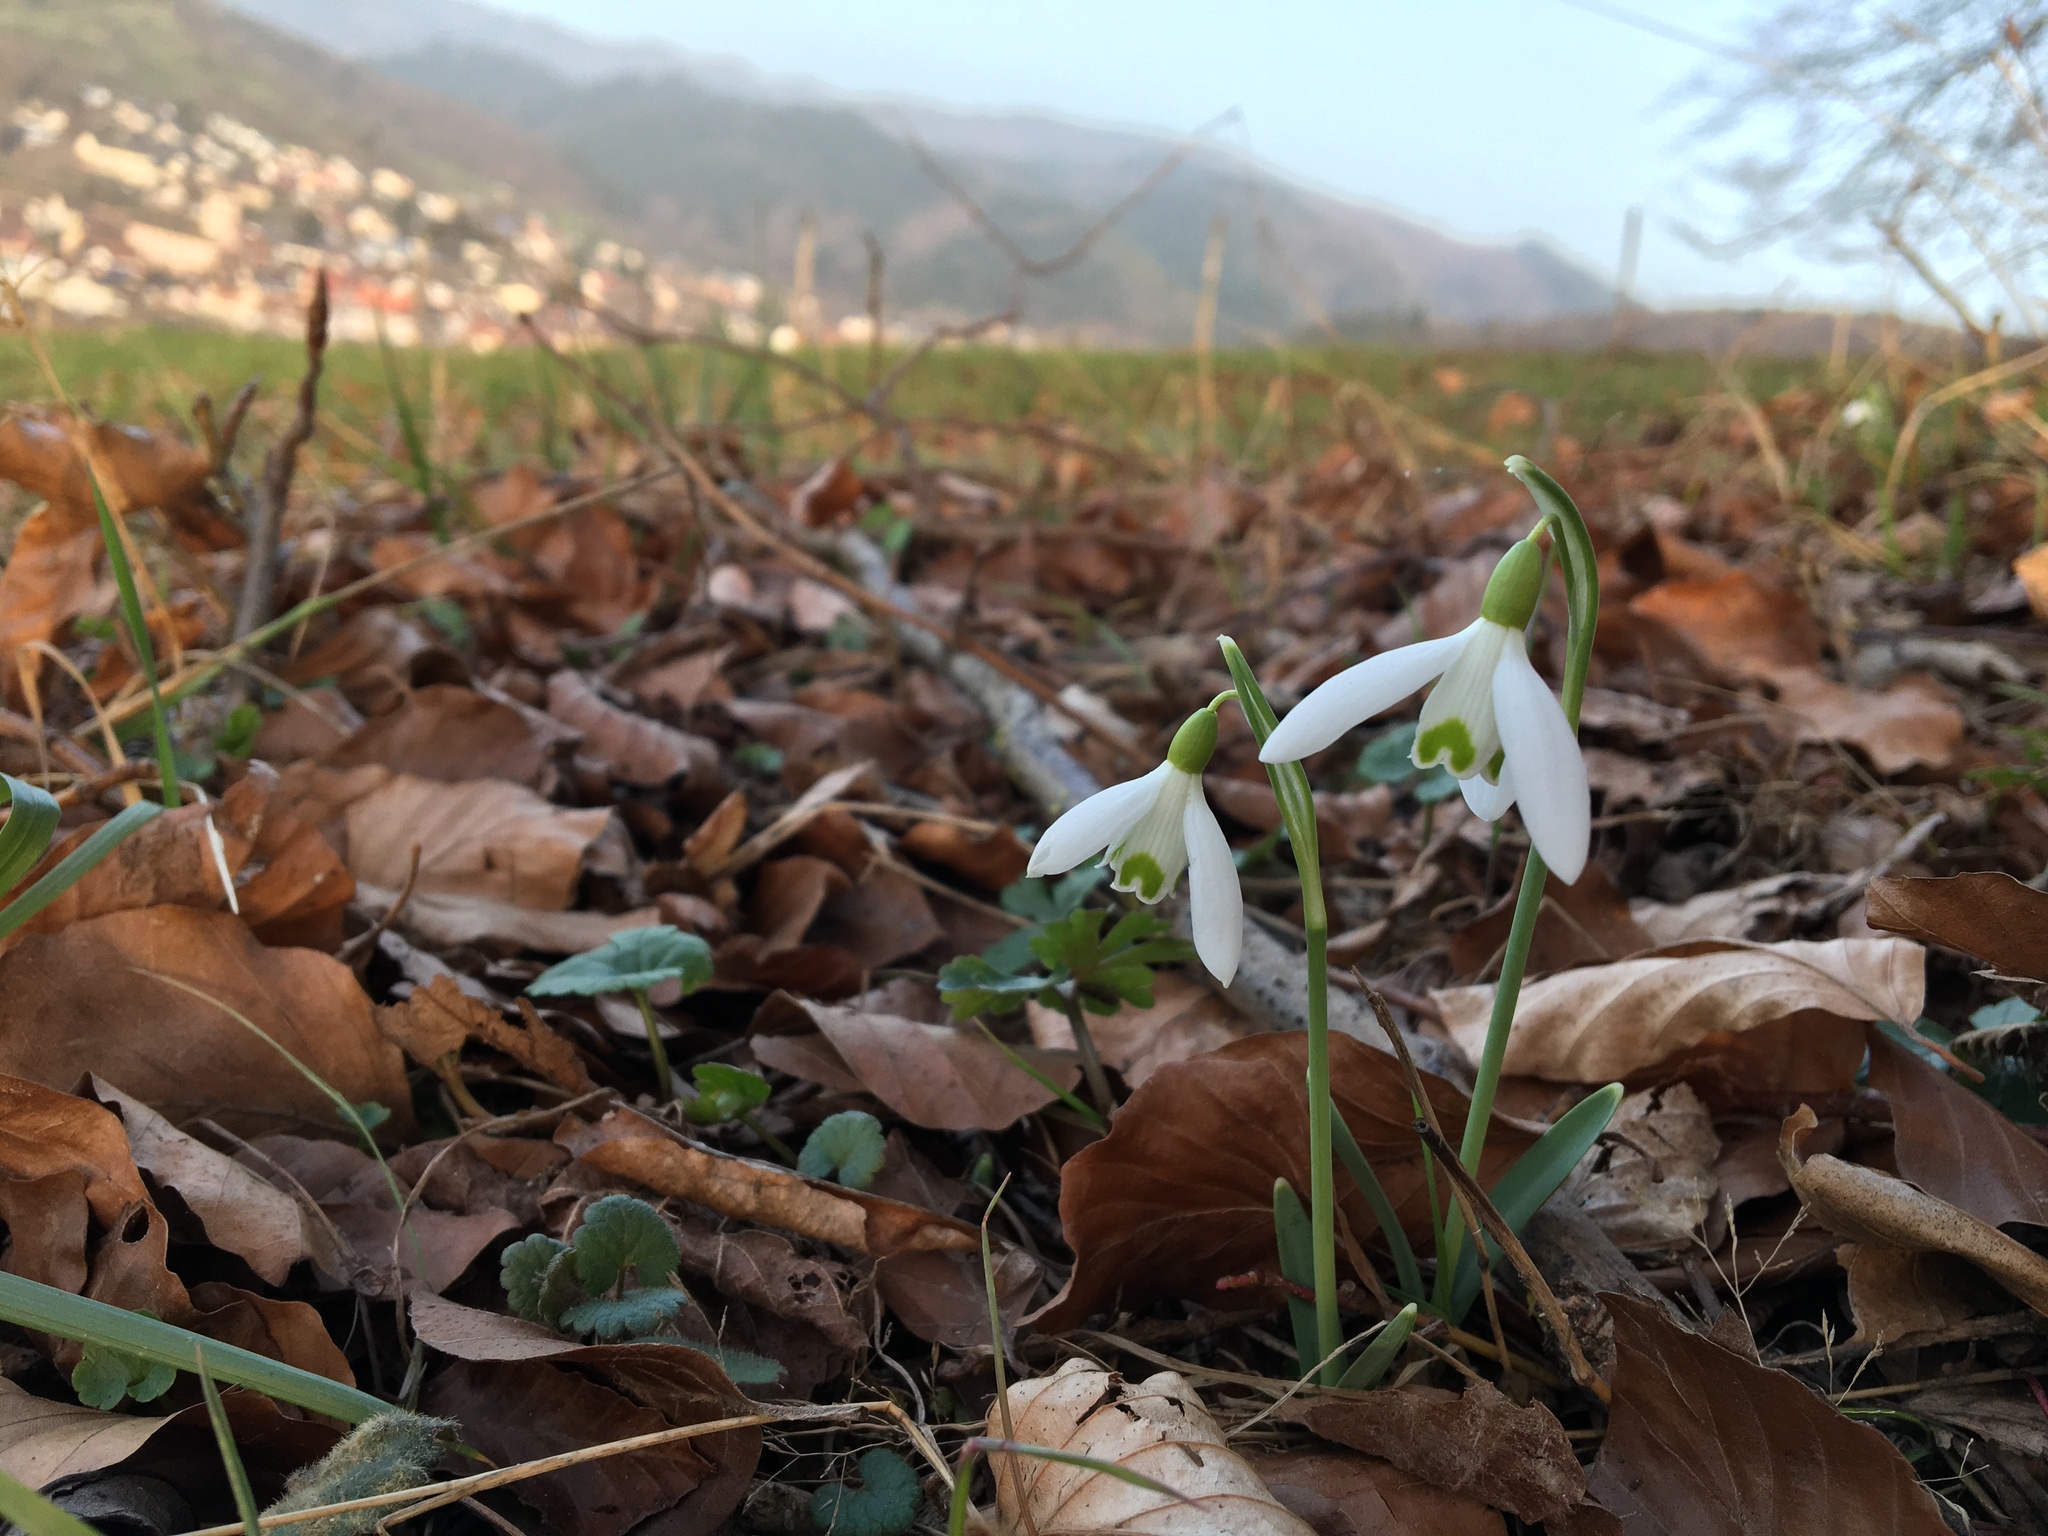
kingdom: Plantae
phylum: Tracheophyta
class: Liliopsida
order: Asparagales
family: Amaryllidaceae
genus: Galanthus
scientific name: Galanthus nivalis
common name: Snowdrop
